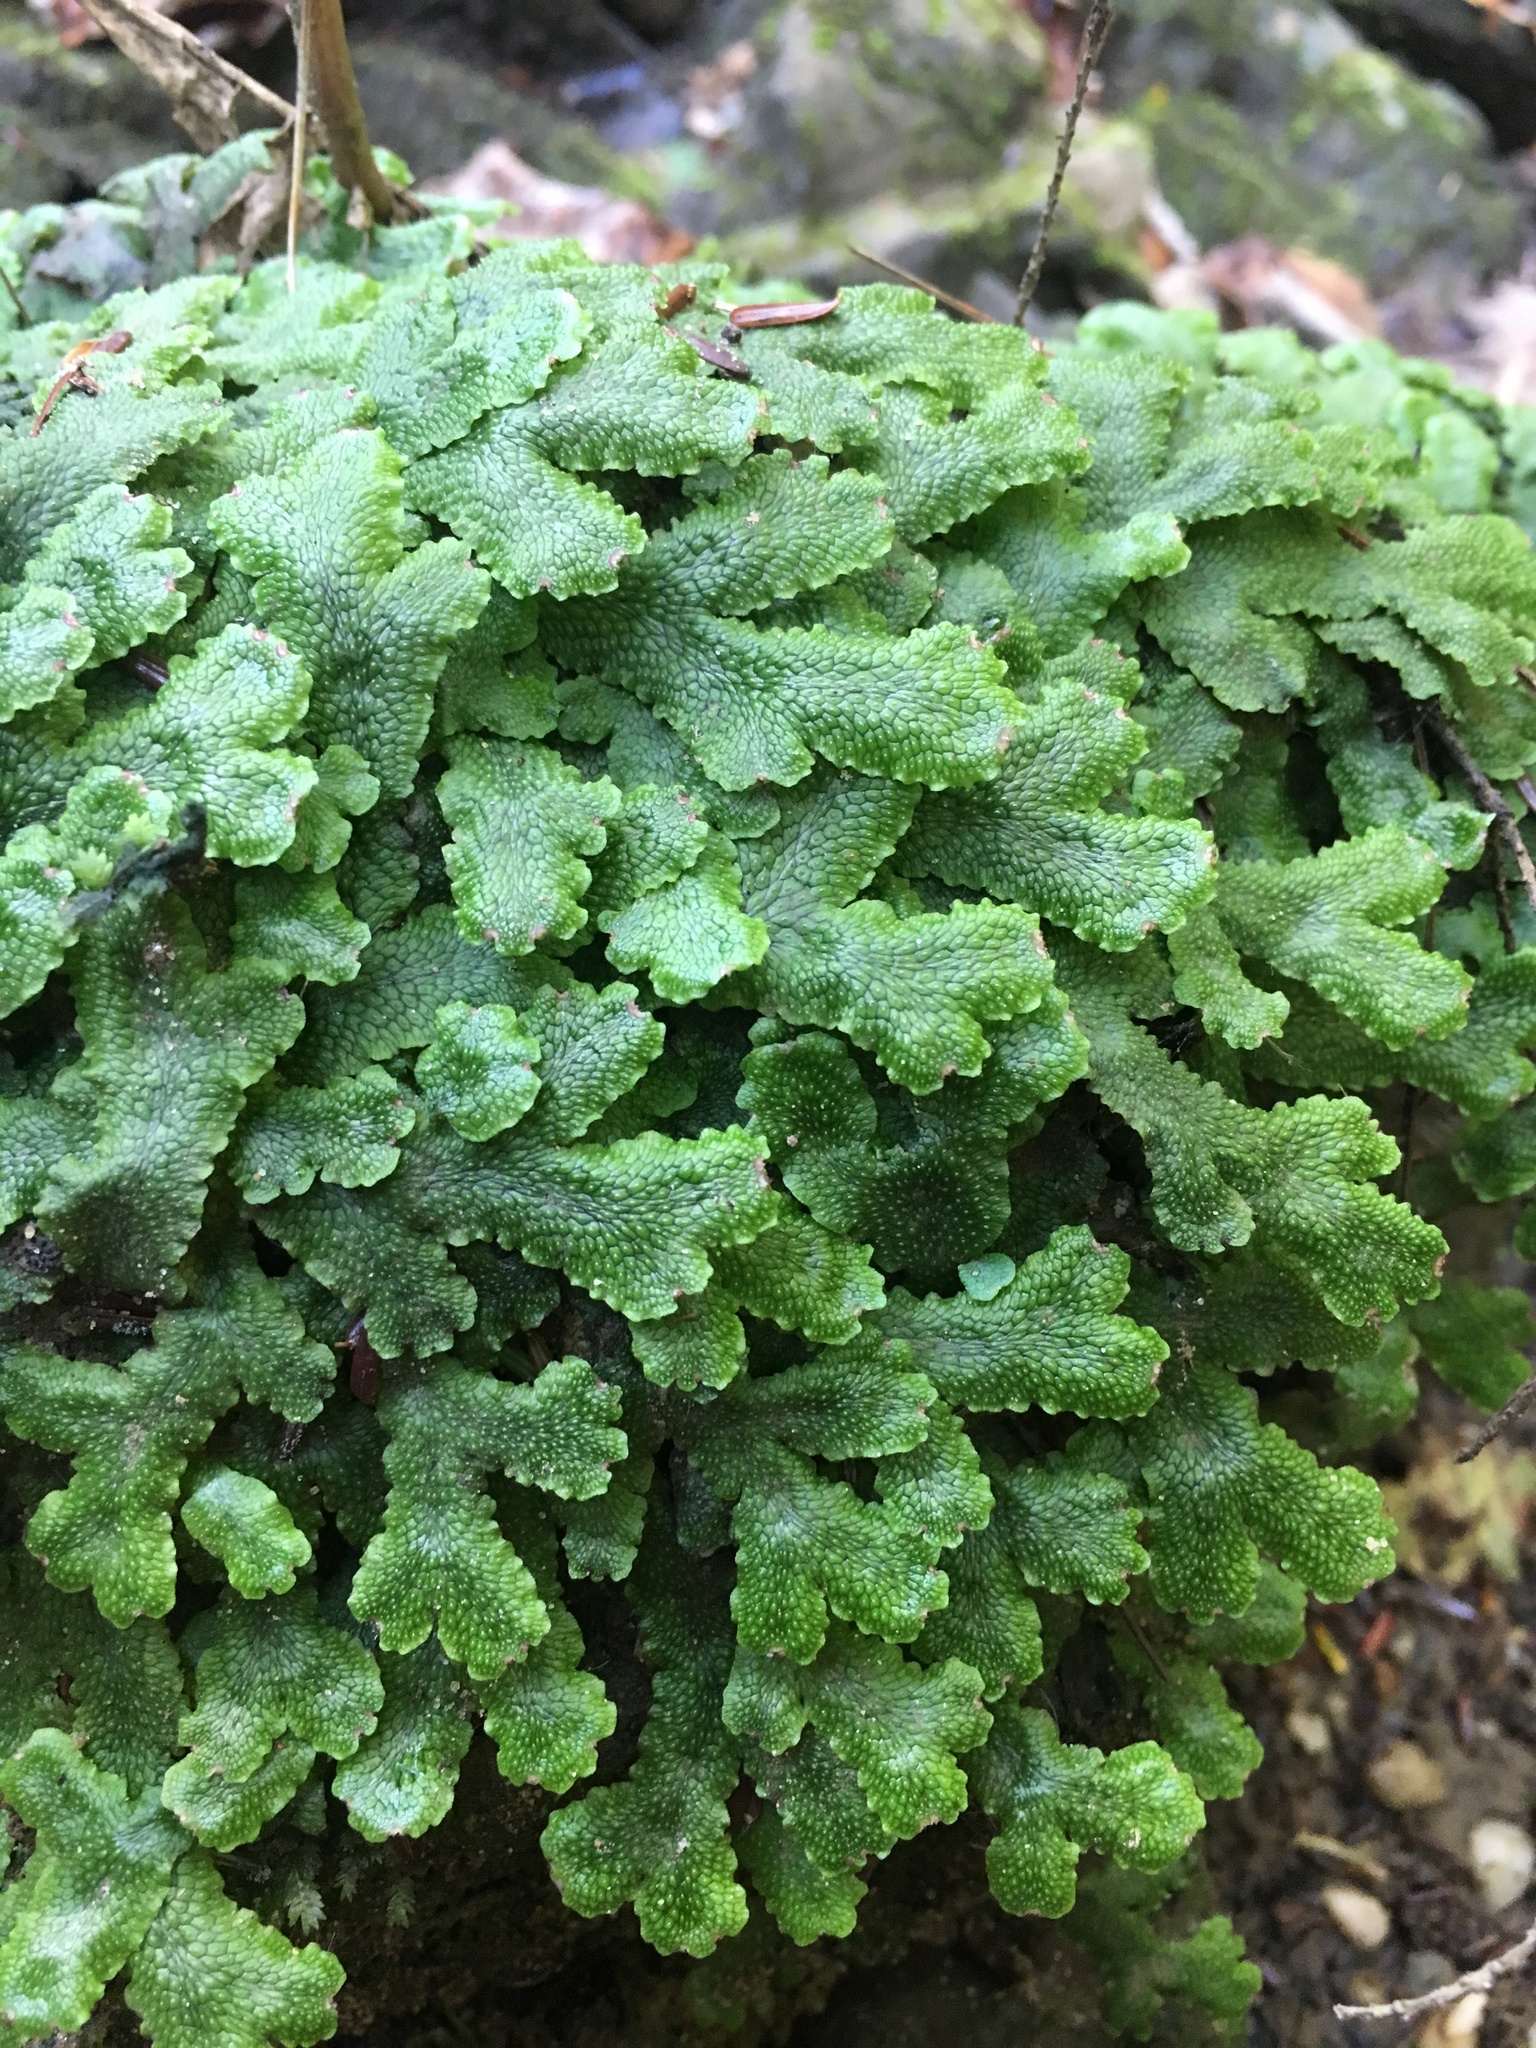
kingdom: Plantae
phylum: Marchantiophyta
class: Marchantiopsida
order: Marchantiales
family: Conocephalaceae
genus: Conocephalum
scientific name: Conocephalum salebrosum
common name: Cat-tongue liverwort
